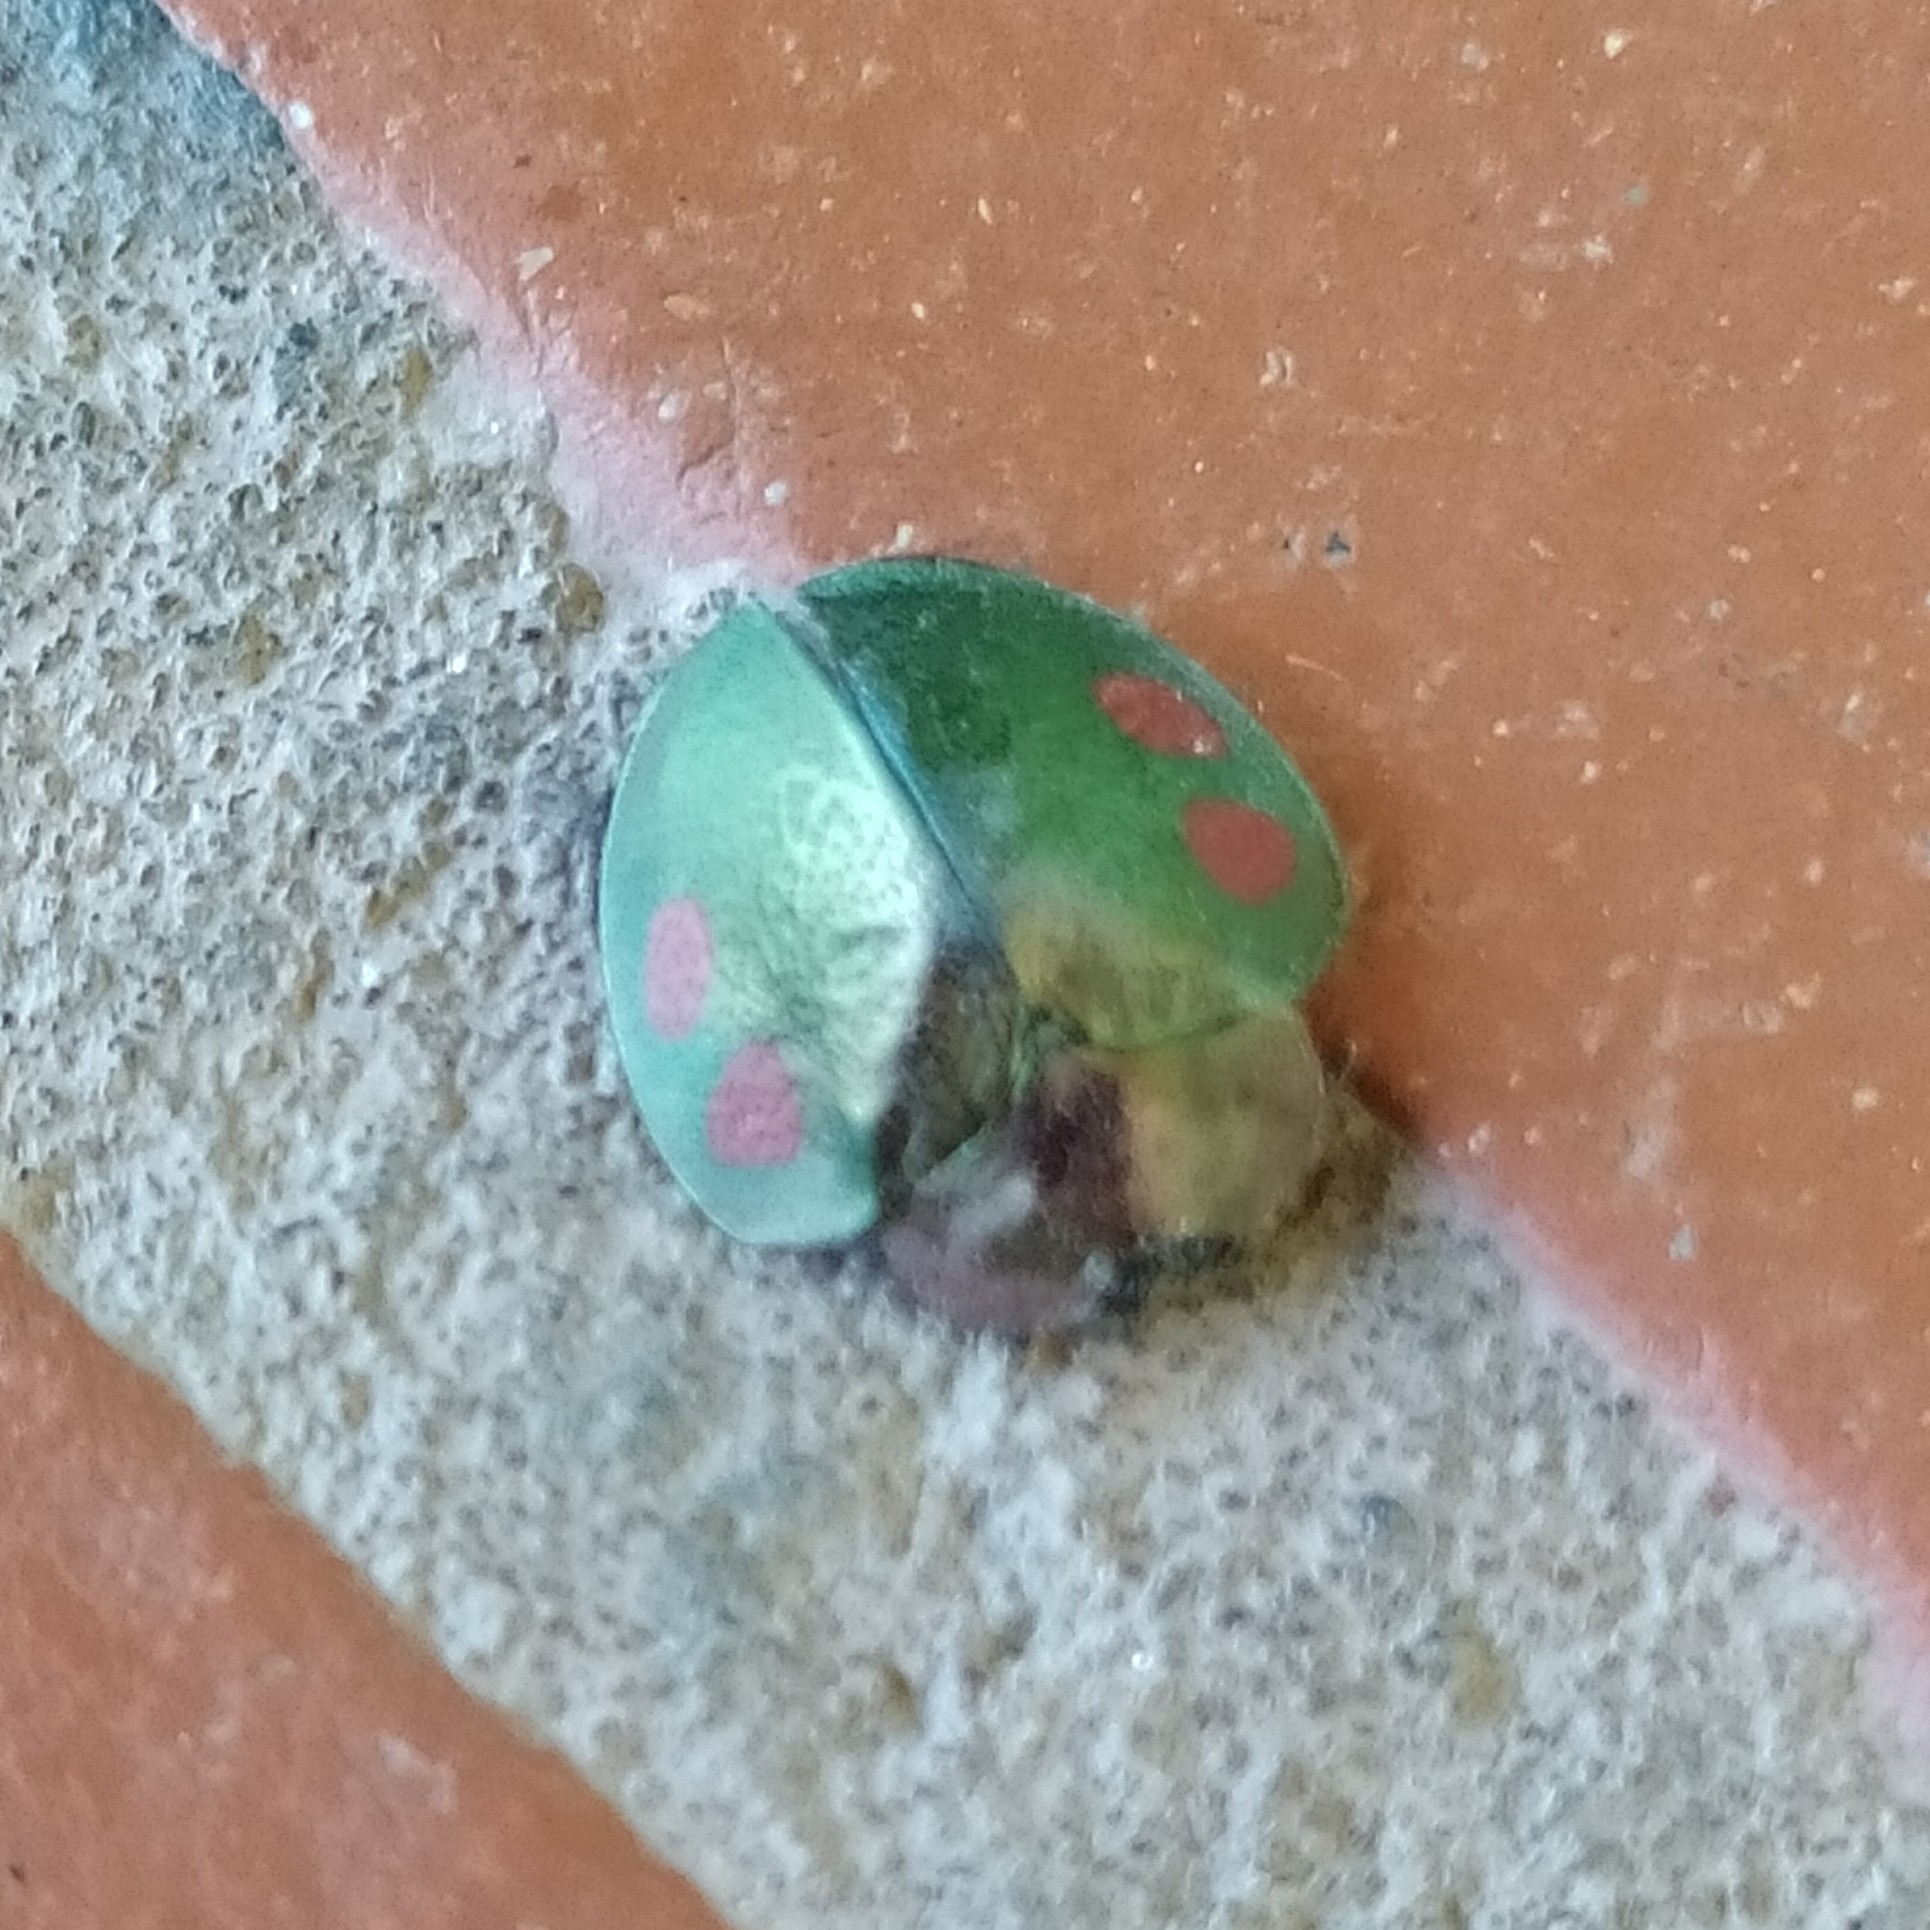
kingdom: Animalia
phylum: Arthropoda
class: Insecta
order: Coleoptera
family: Chrysomelidae
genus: Stolas
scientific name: Stolas discoides
